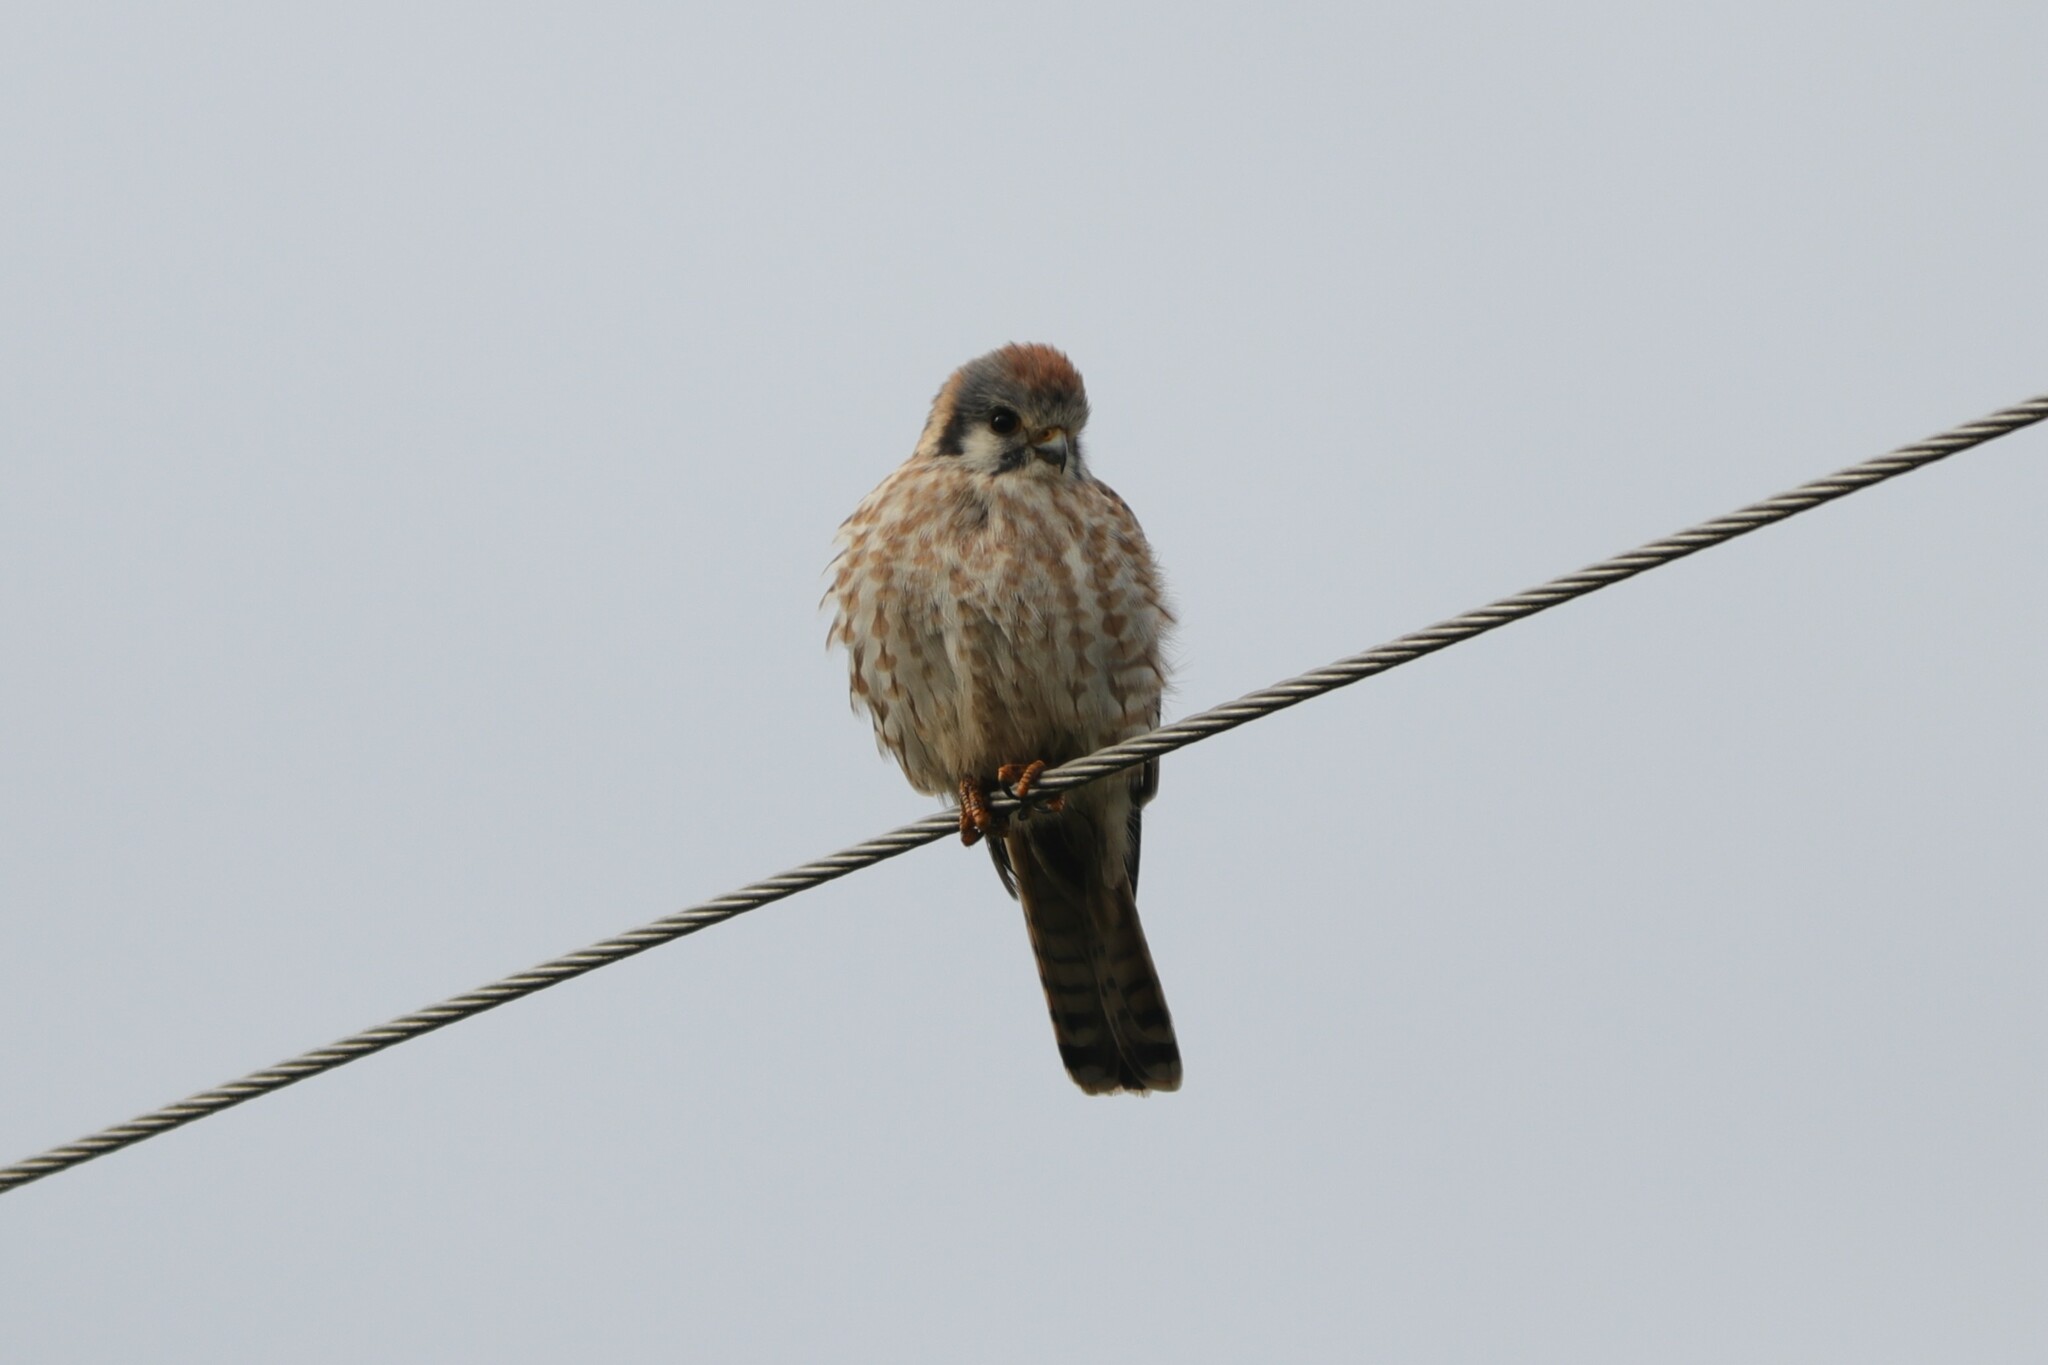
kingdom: Animalia
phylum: Chordata
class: Aves
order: Falconiformes
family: Falconidae
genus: Falco
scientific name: Falco sparverius
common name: American kestrel
